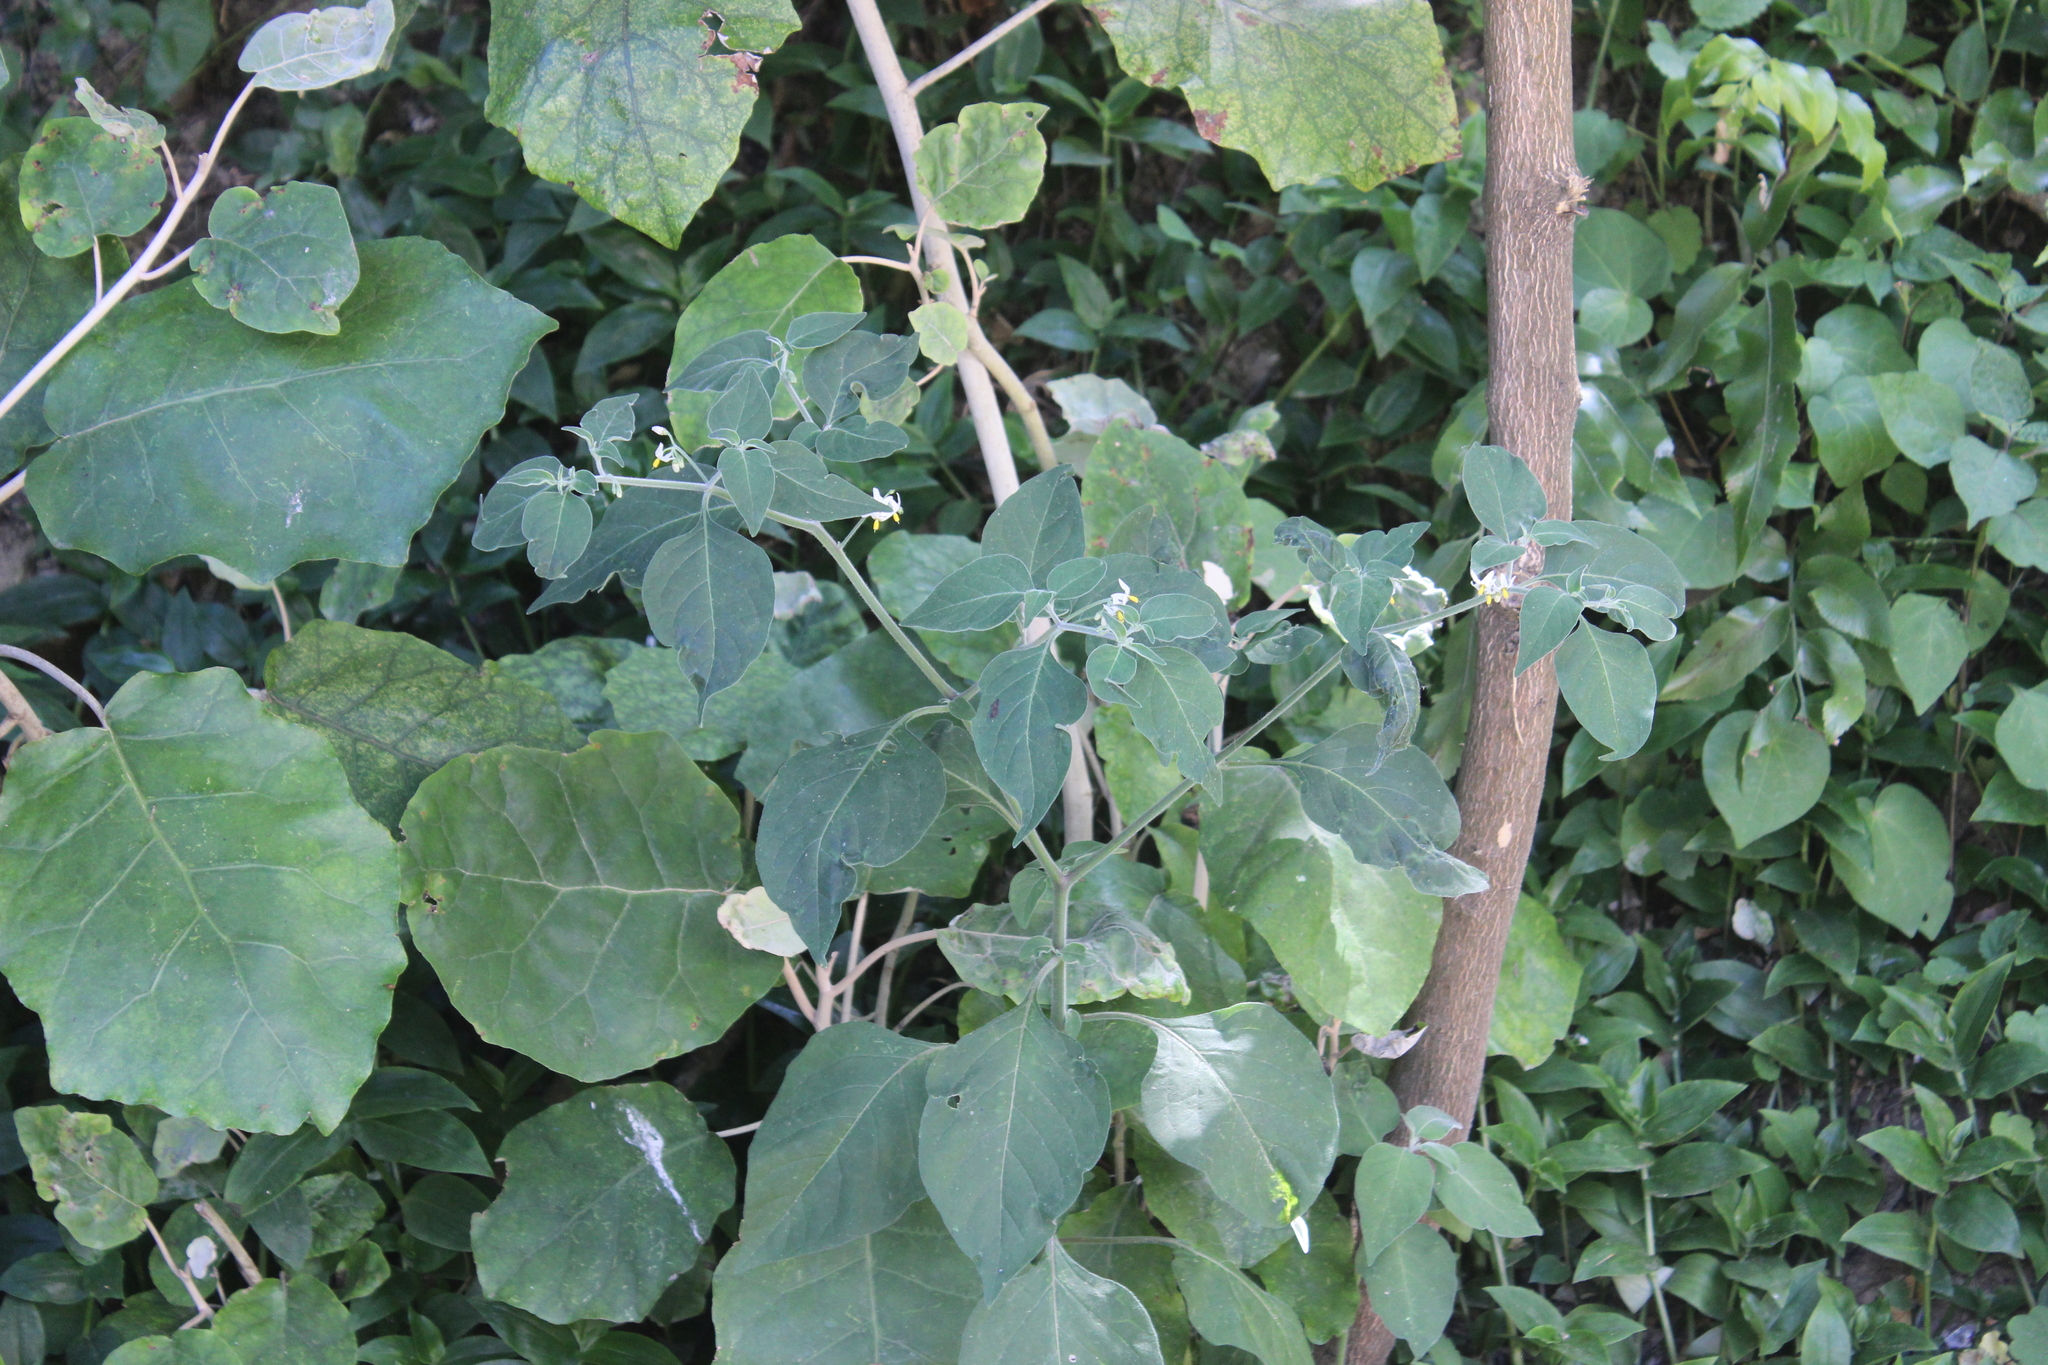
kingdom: Plantae
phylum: Tracheophyta
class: Magnoliopsida
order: Solanales
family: Solanaceae
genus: Solanum
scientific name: Solanum chenopodioides
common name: Tall nightshade
